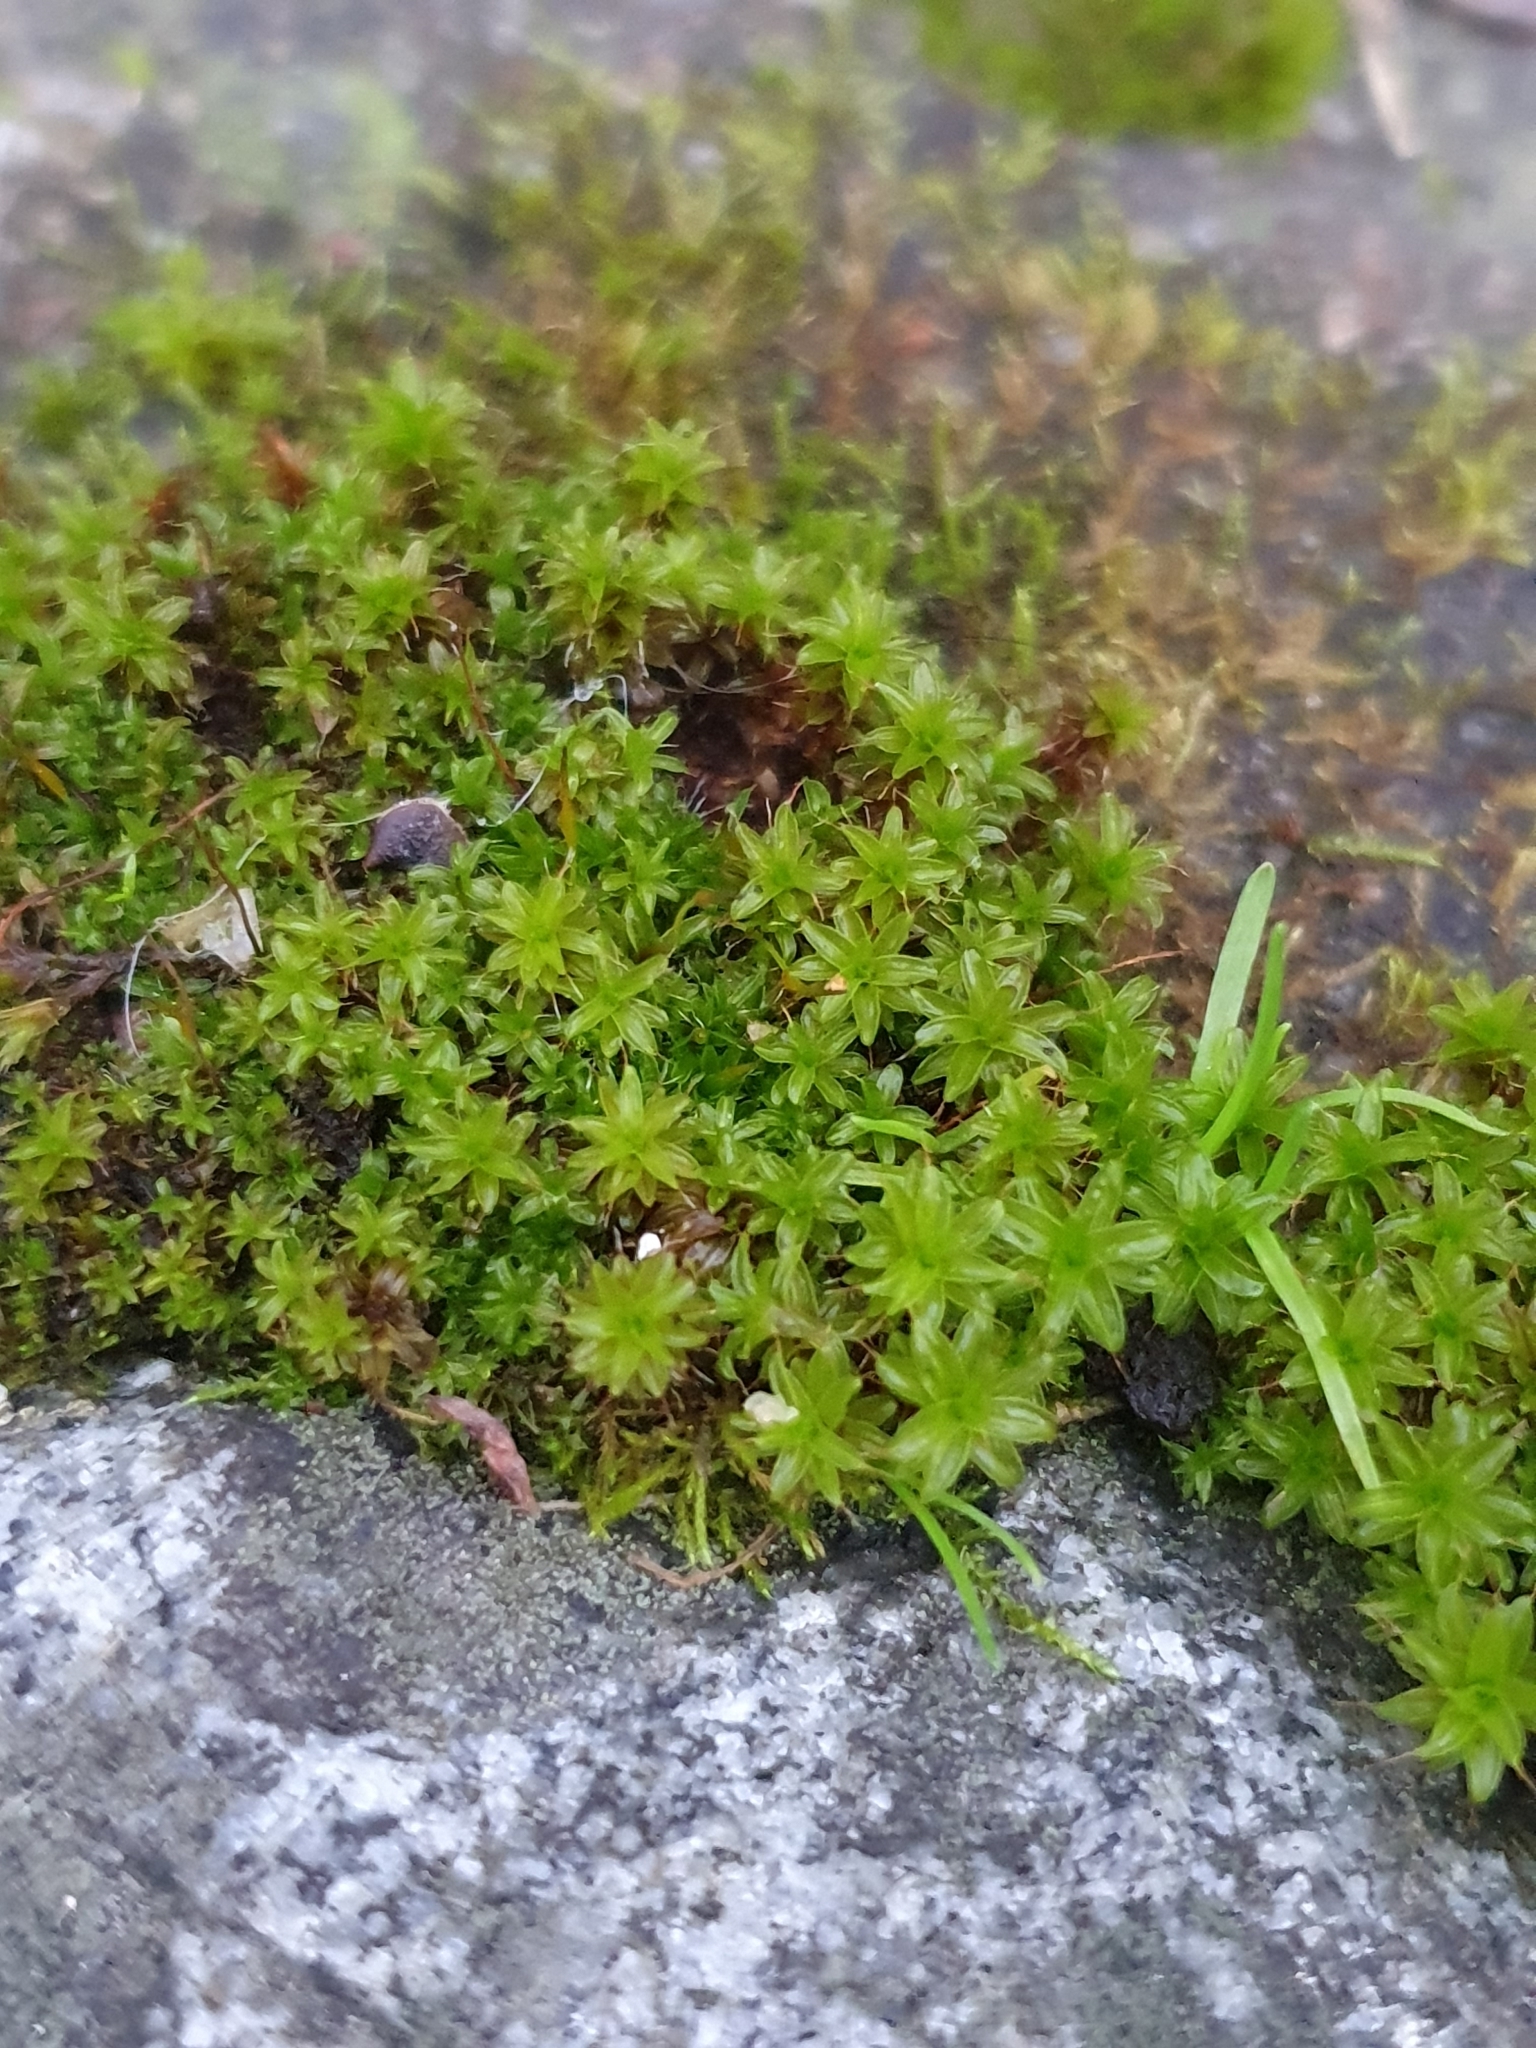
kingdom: Plantae
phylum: Bryophyta
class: Bryopsida
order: Pottiales
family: Pottiaceae
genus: Syntrichia
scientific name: Syntrichia ruralis
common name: Sidewalk screw moss
